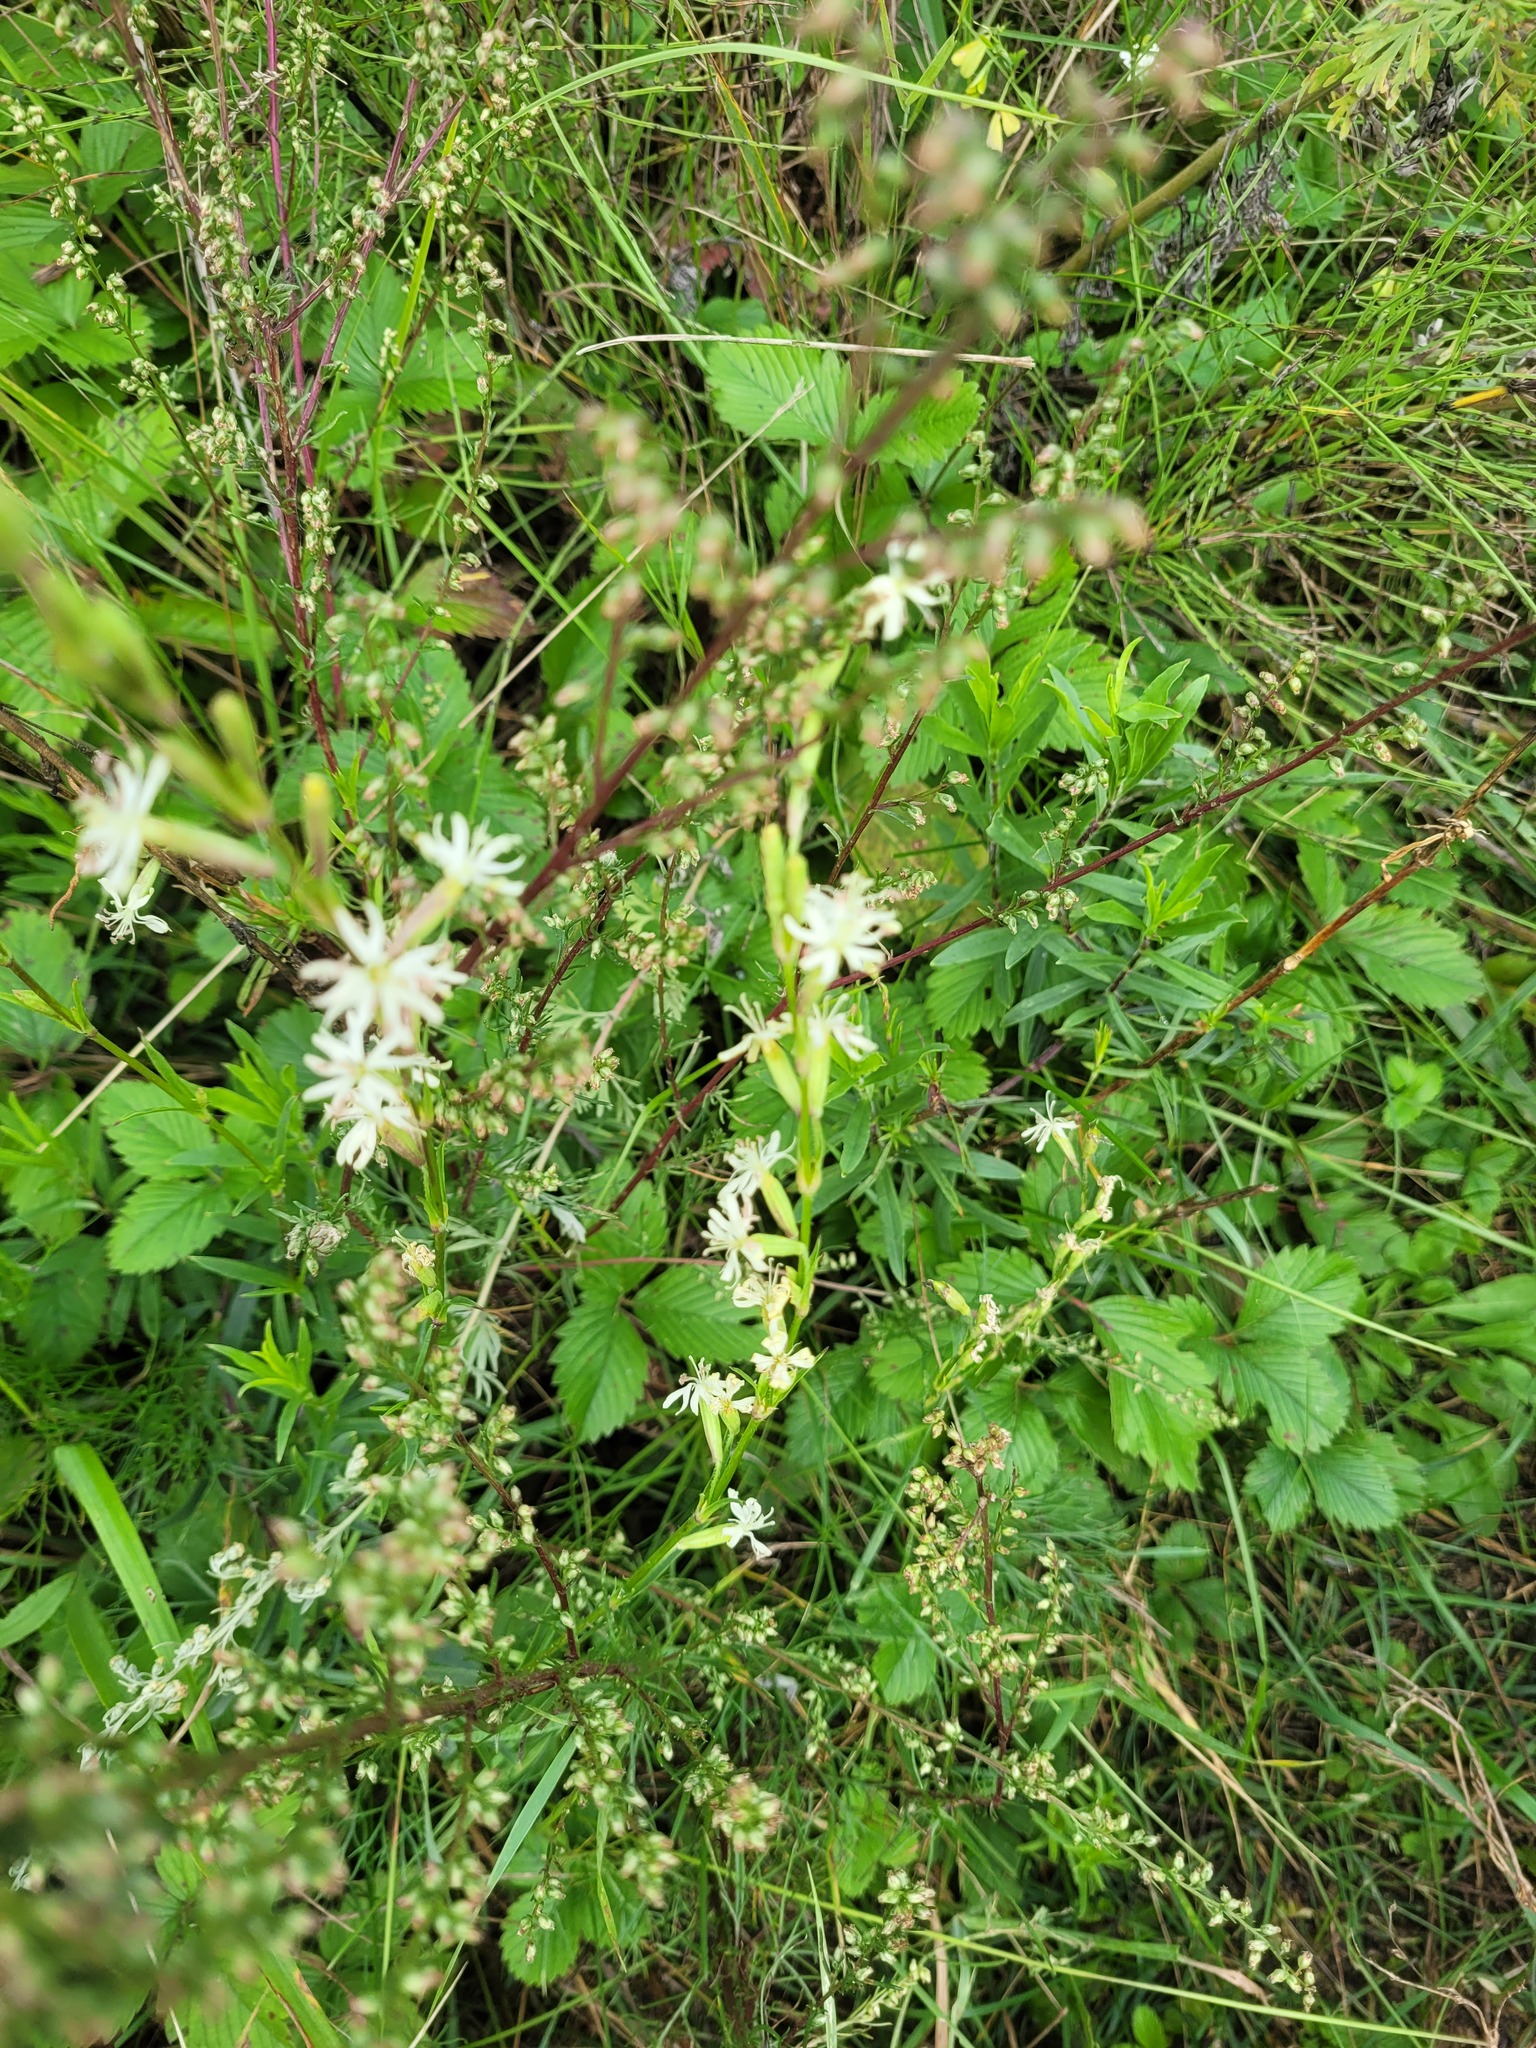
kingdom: Plantae
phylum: Tracheophyta
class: Magnoliopsida
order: Caryophyllales
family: Caryophyllaceae
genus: Silene
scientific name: Silene tatarica
